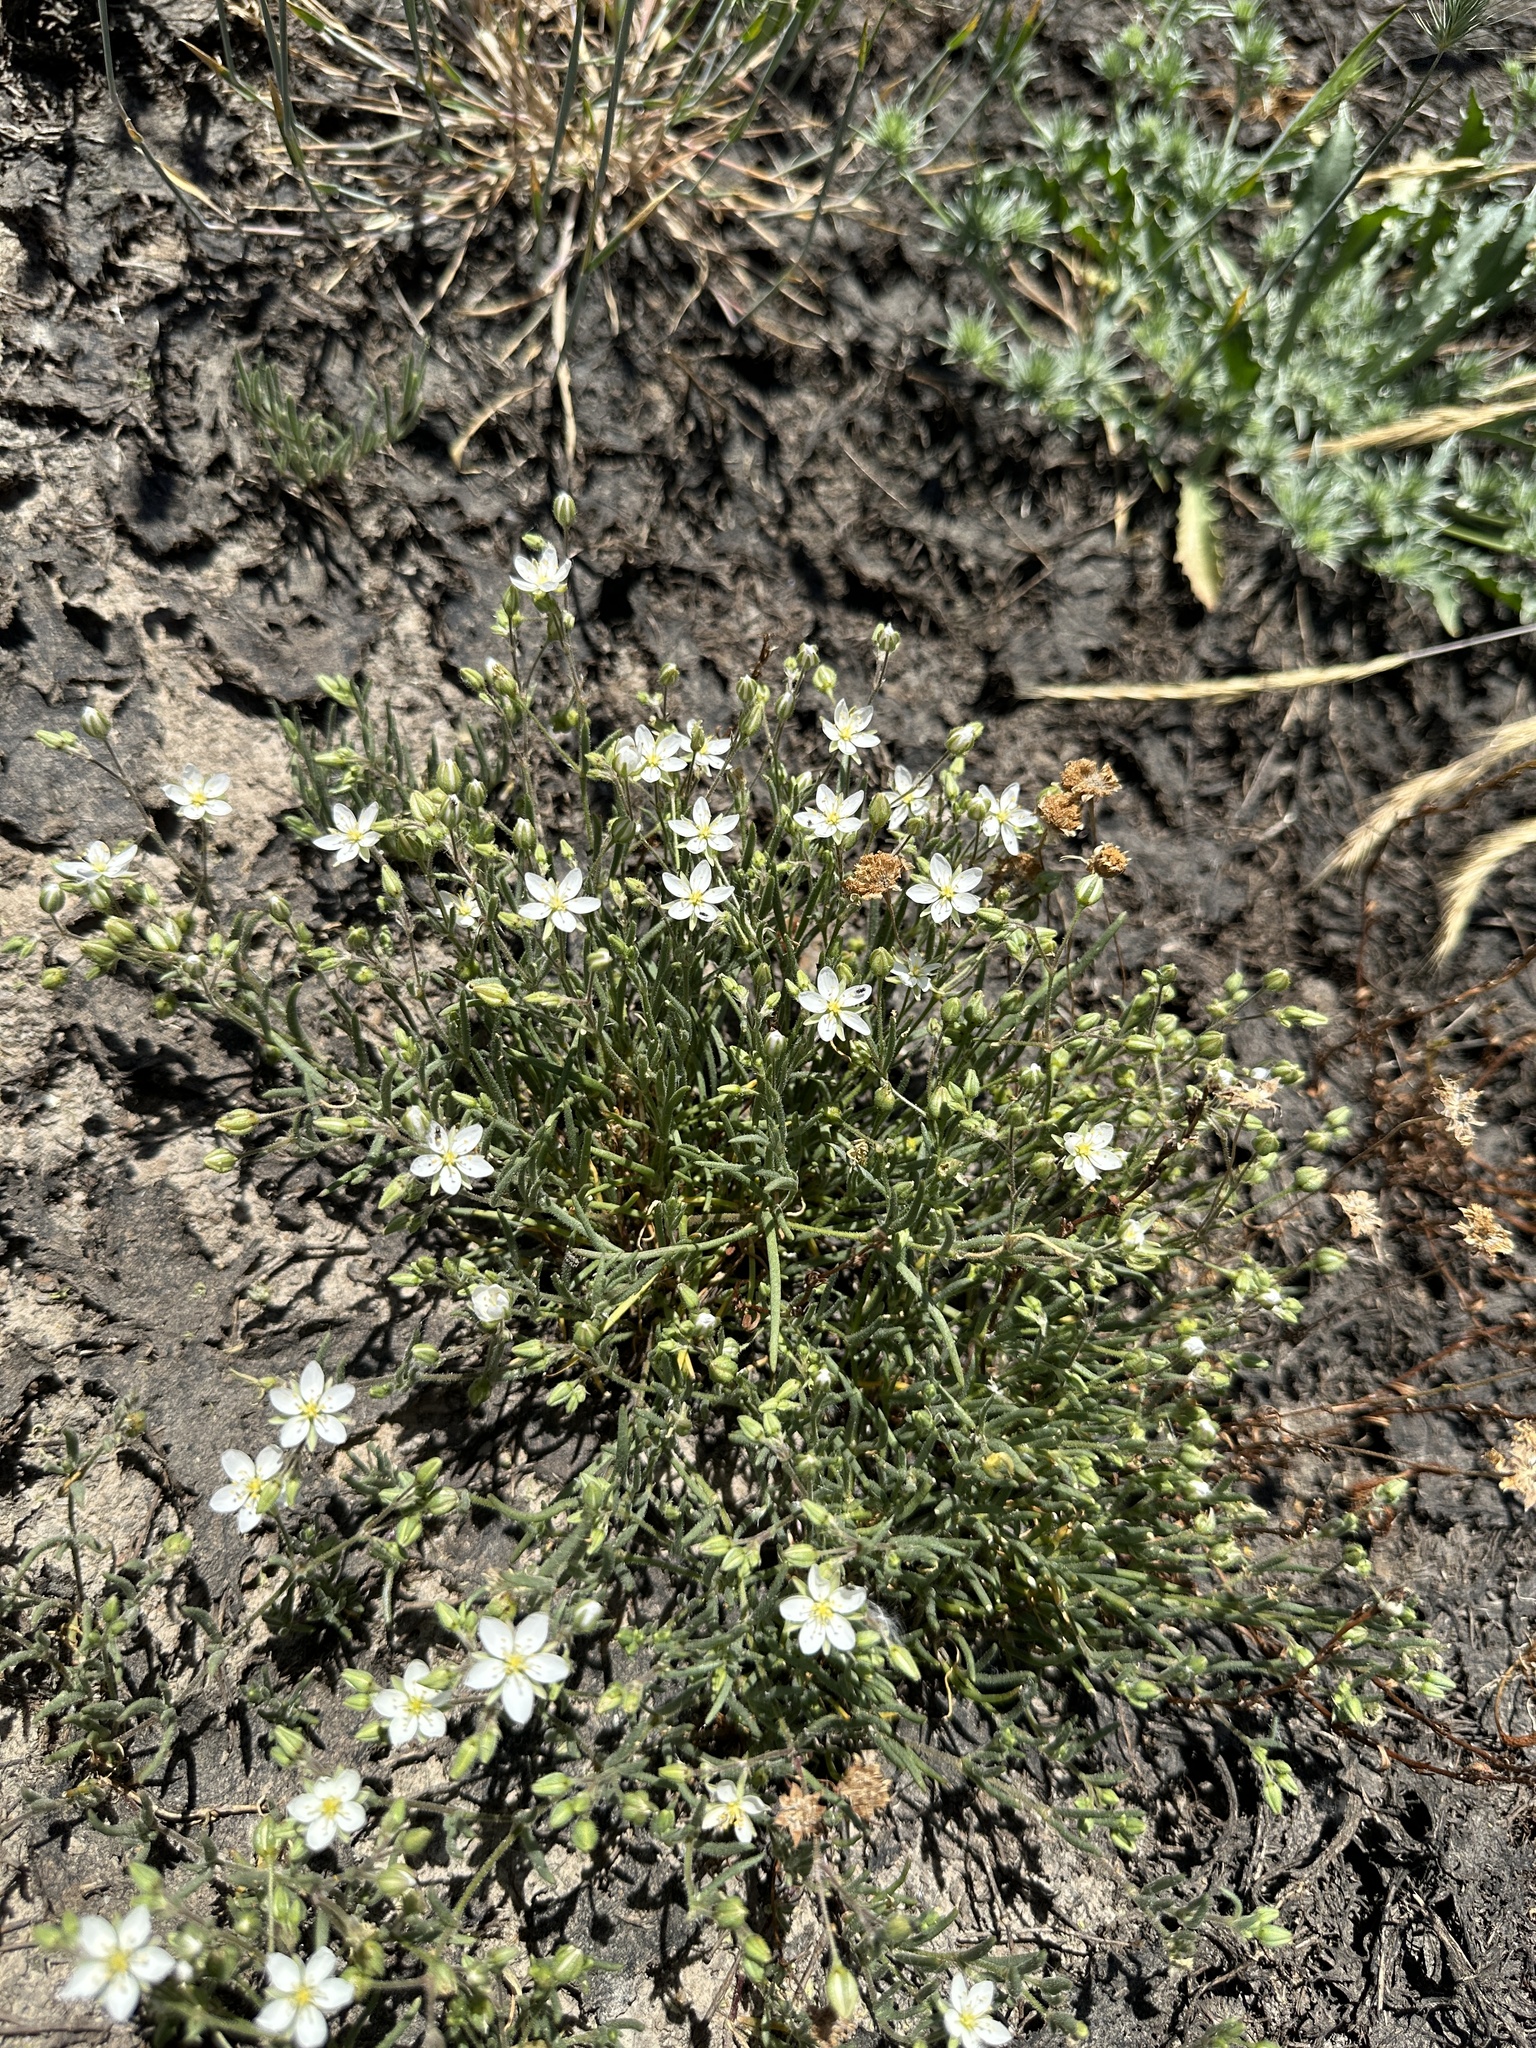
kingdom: Plantae
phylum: Tracheophyta
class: Magnoliopsida
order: Caryophyllales
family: Caryophyllaceae
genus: Spergularia
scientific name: Spergularia macrotheca
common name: Beach sand-spurrey
